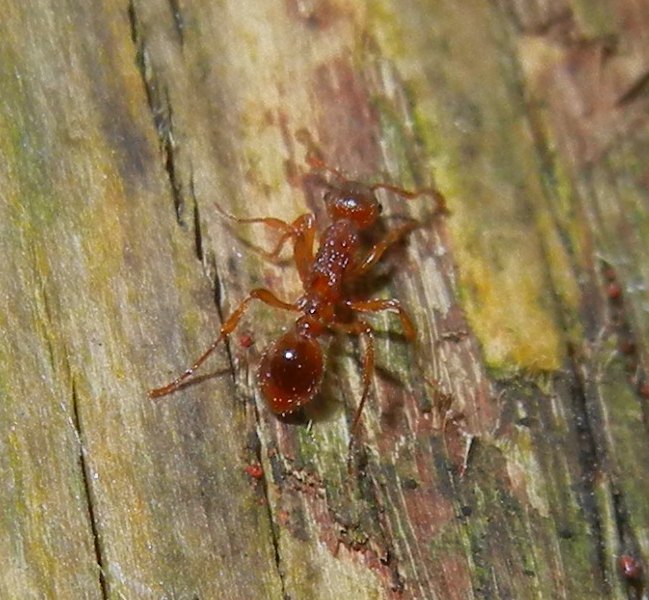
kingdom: Animalia
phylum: Arthropoda
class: Insecta
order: Hymenoptera
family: Formicidae
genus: Leptothorax
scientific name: Leptothorax nylanderi
